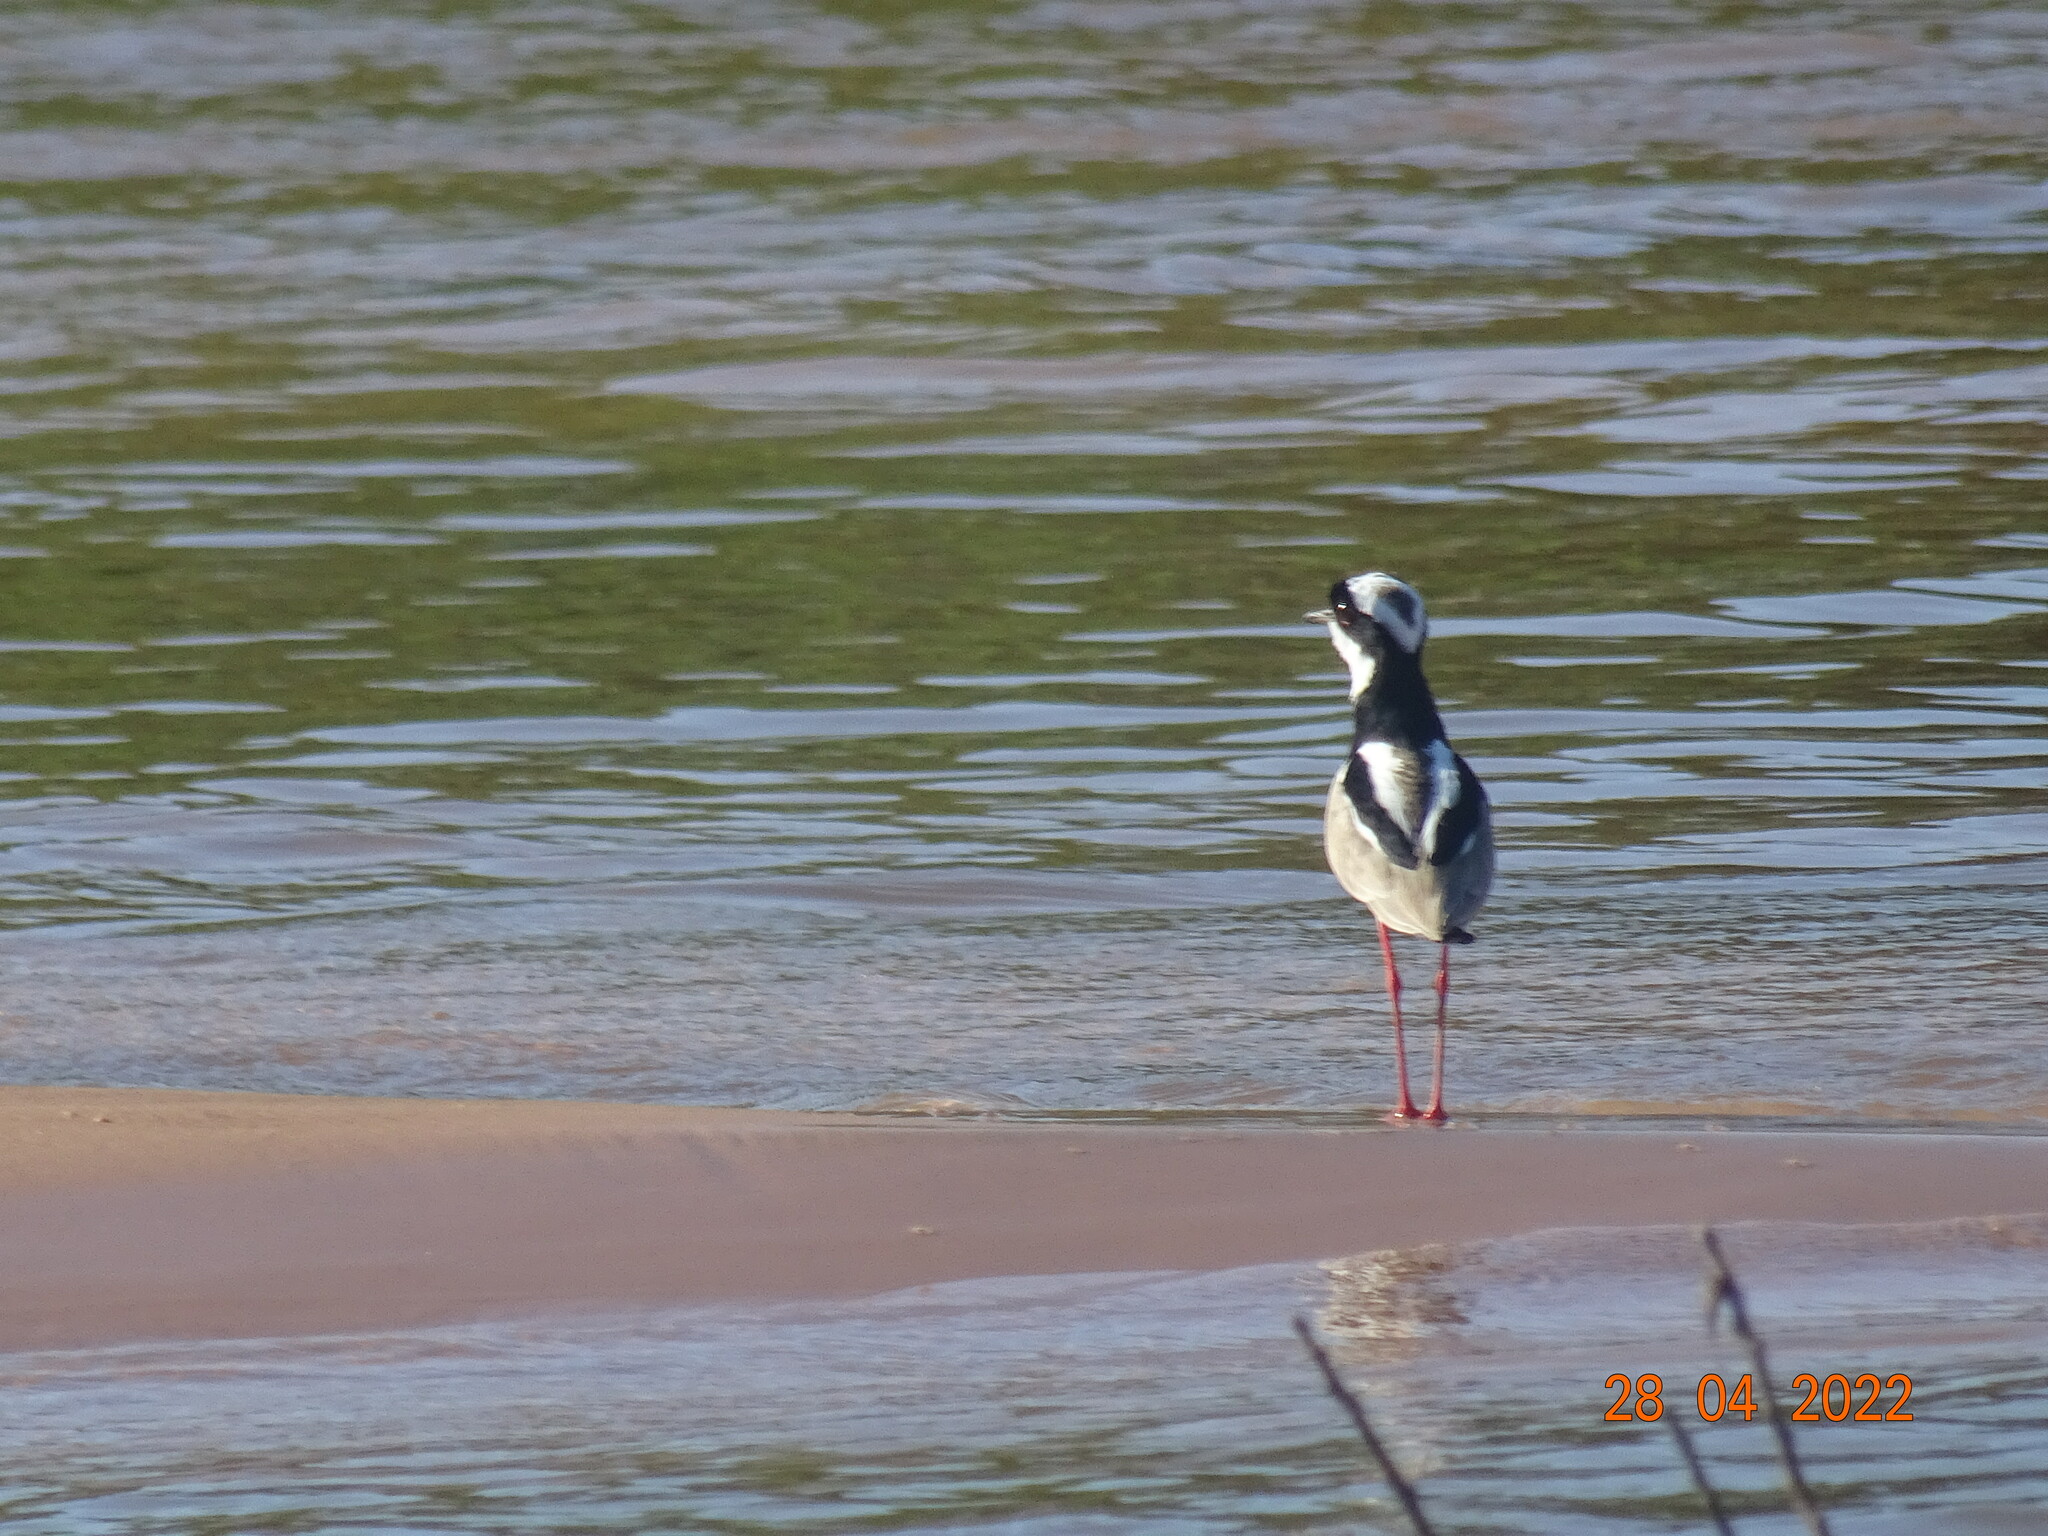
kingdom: Animalia
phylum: Chordata
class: Aves
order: Charadriiformes
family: Charadriidae
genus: Hoploxypterus
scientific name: Hoploxypterus cayanus
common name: Pied plover
